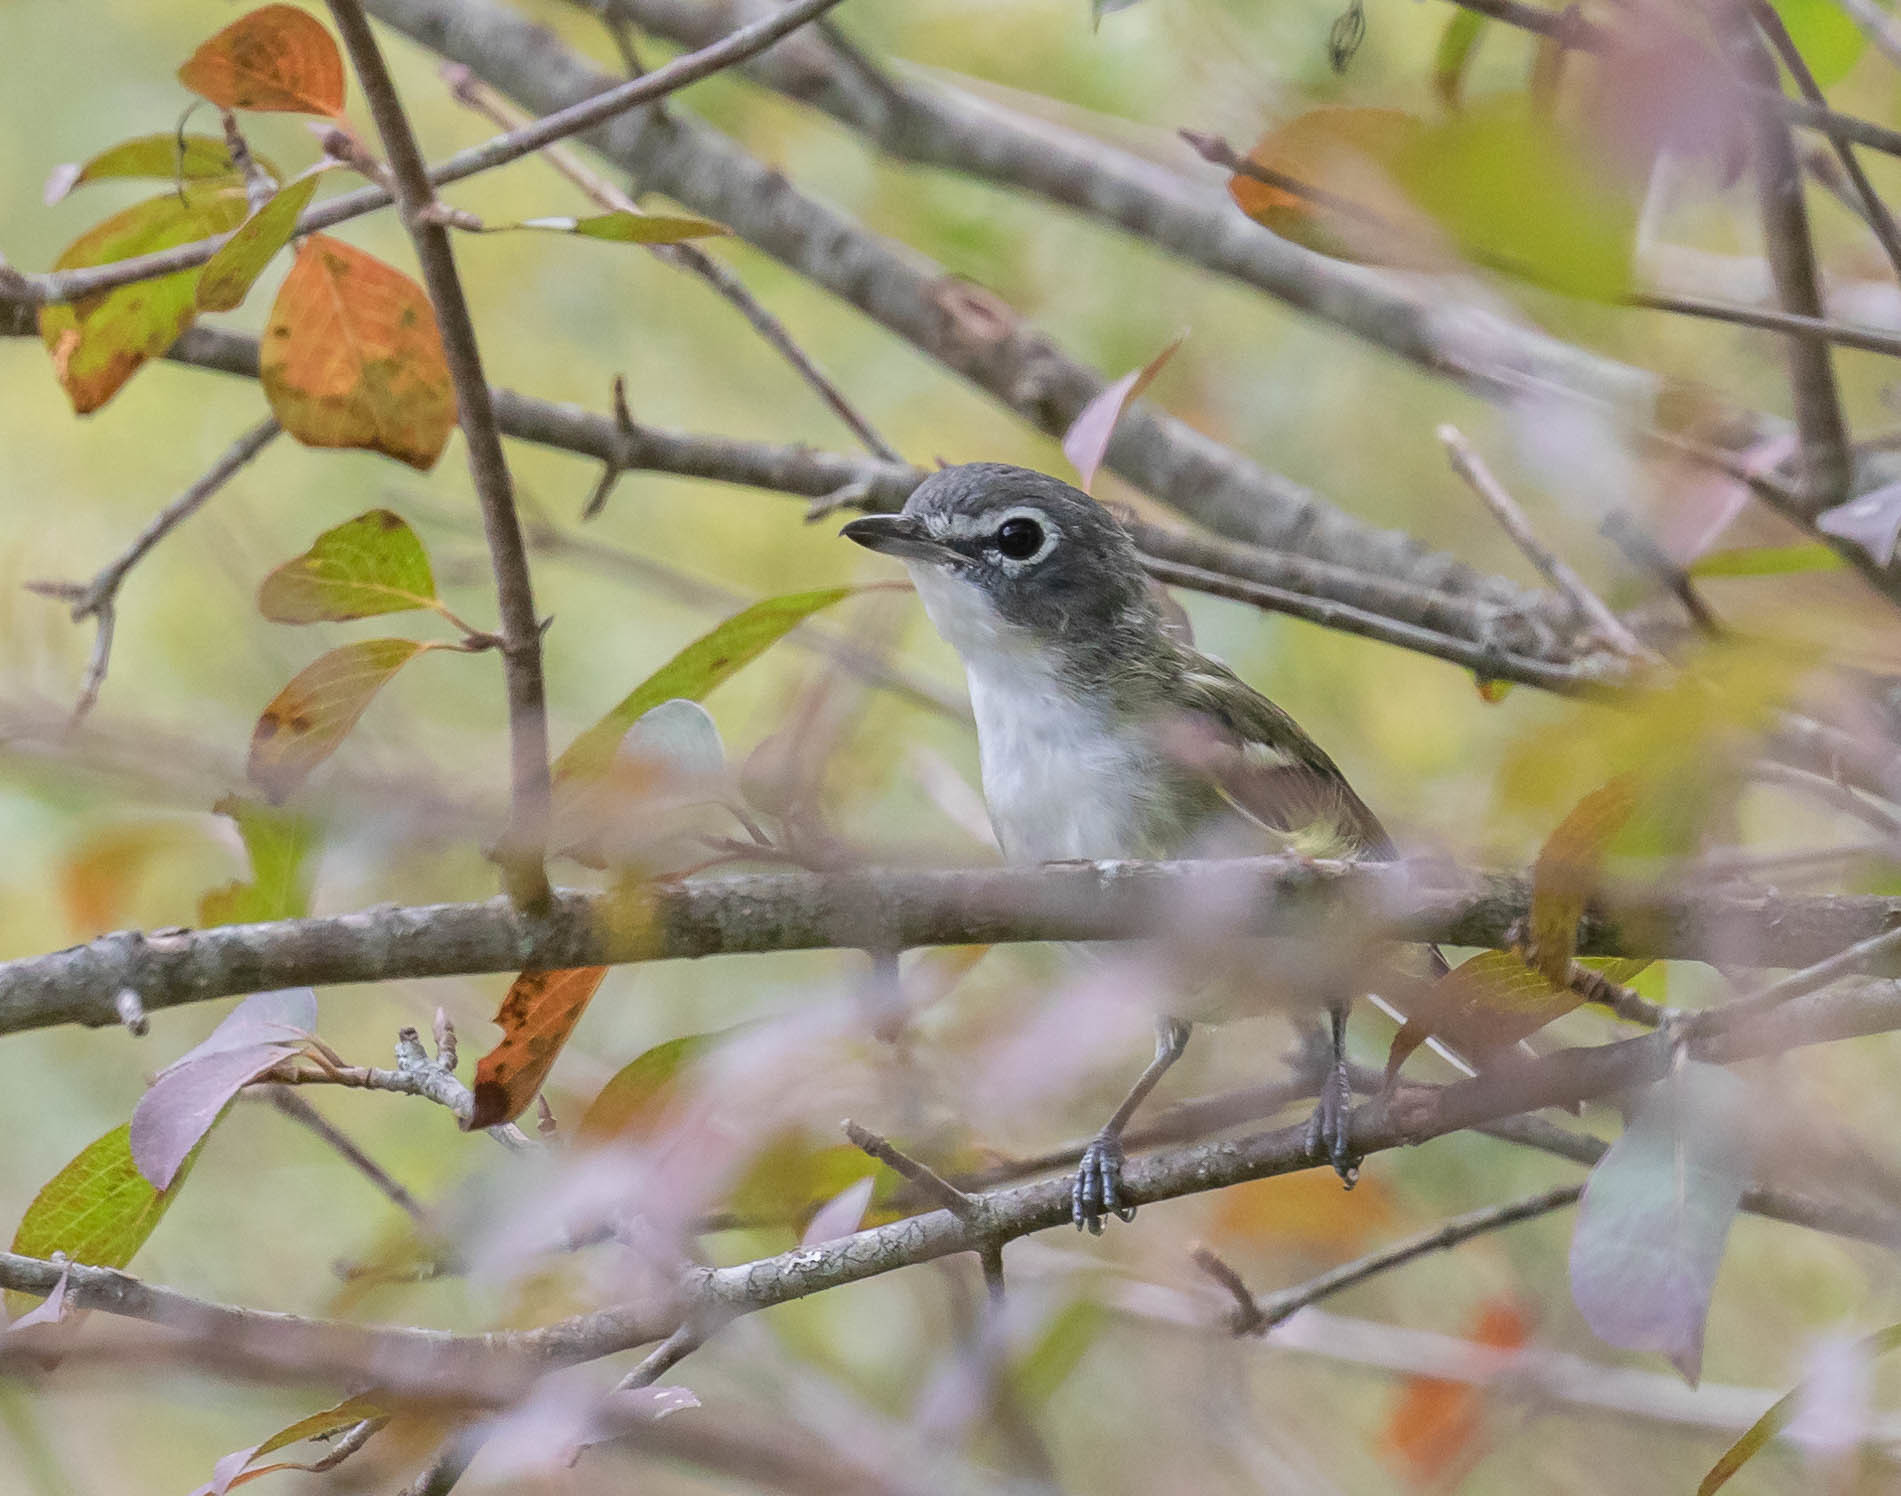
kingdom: Animalia
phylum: Chordata
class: Aves
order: Passeriformes
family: Vireonidae
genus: Vireo
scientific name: Vireo solitarius
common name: Blue-headed vireo
